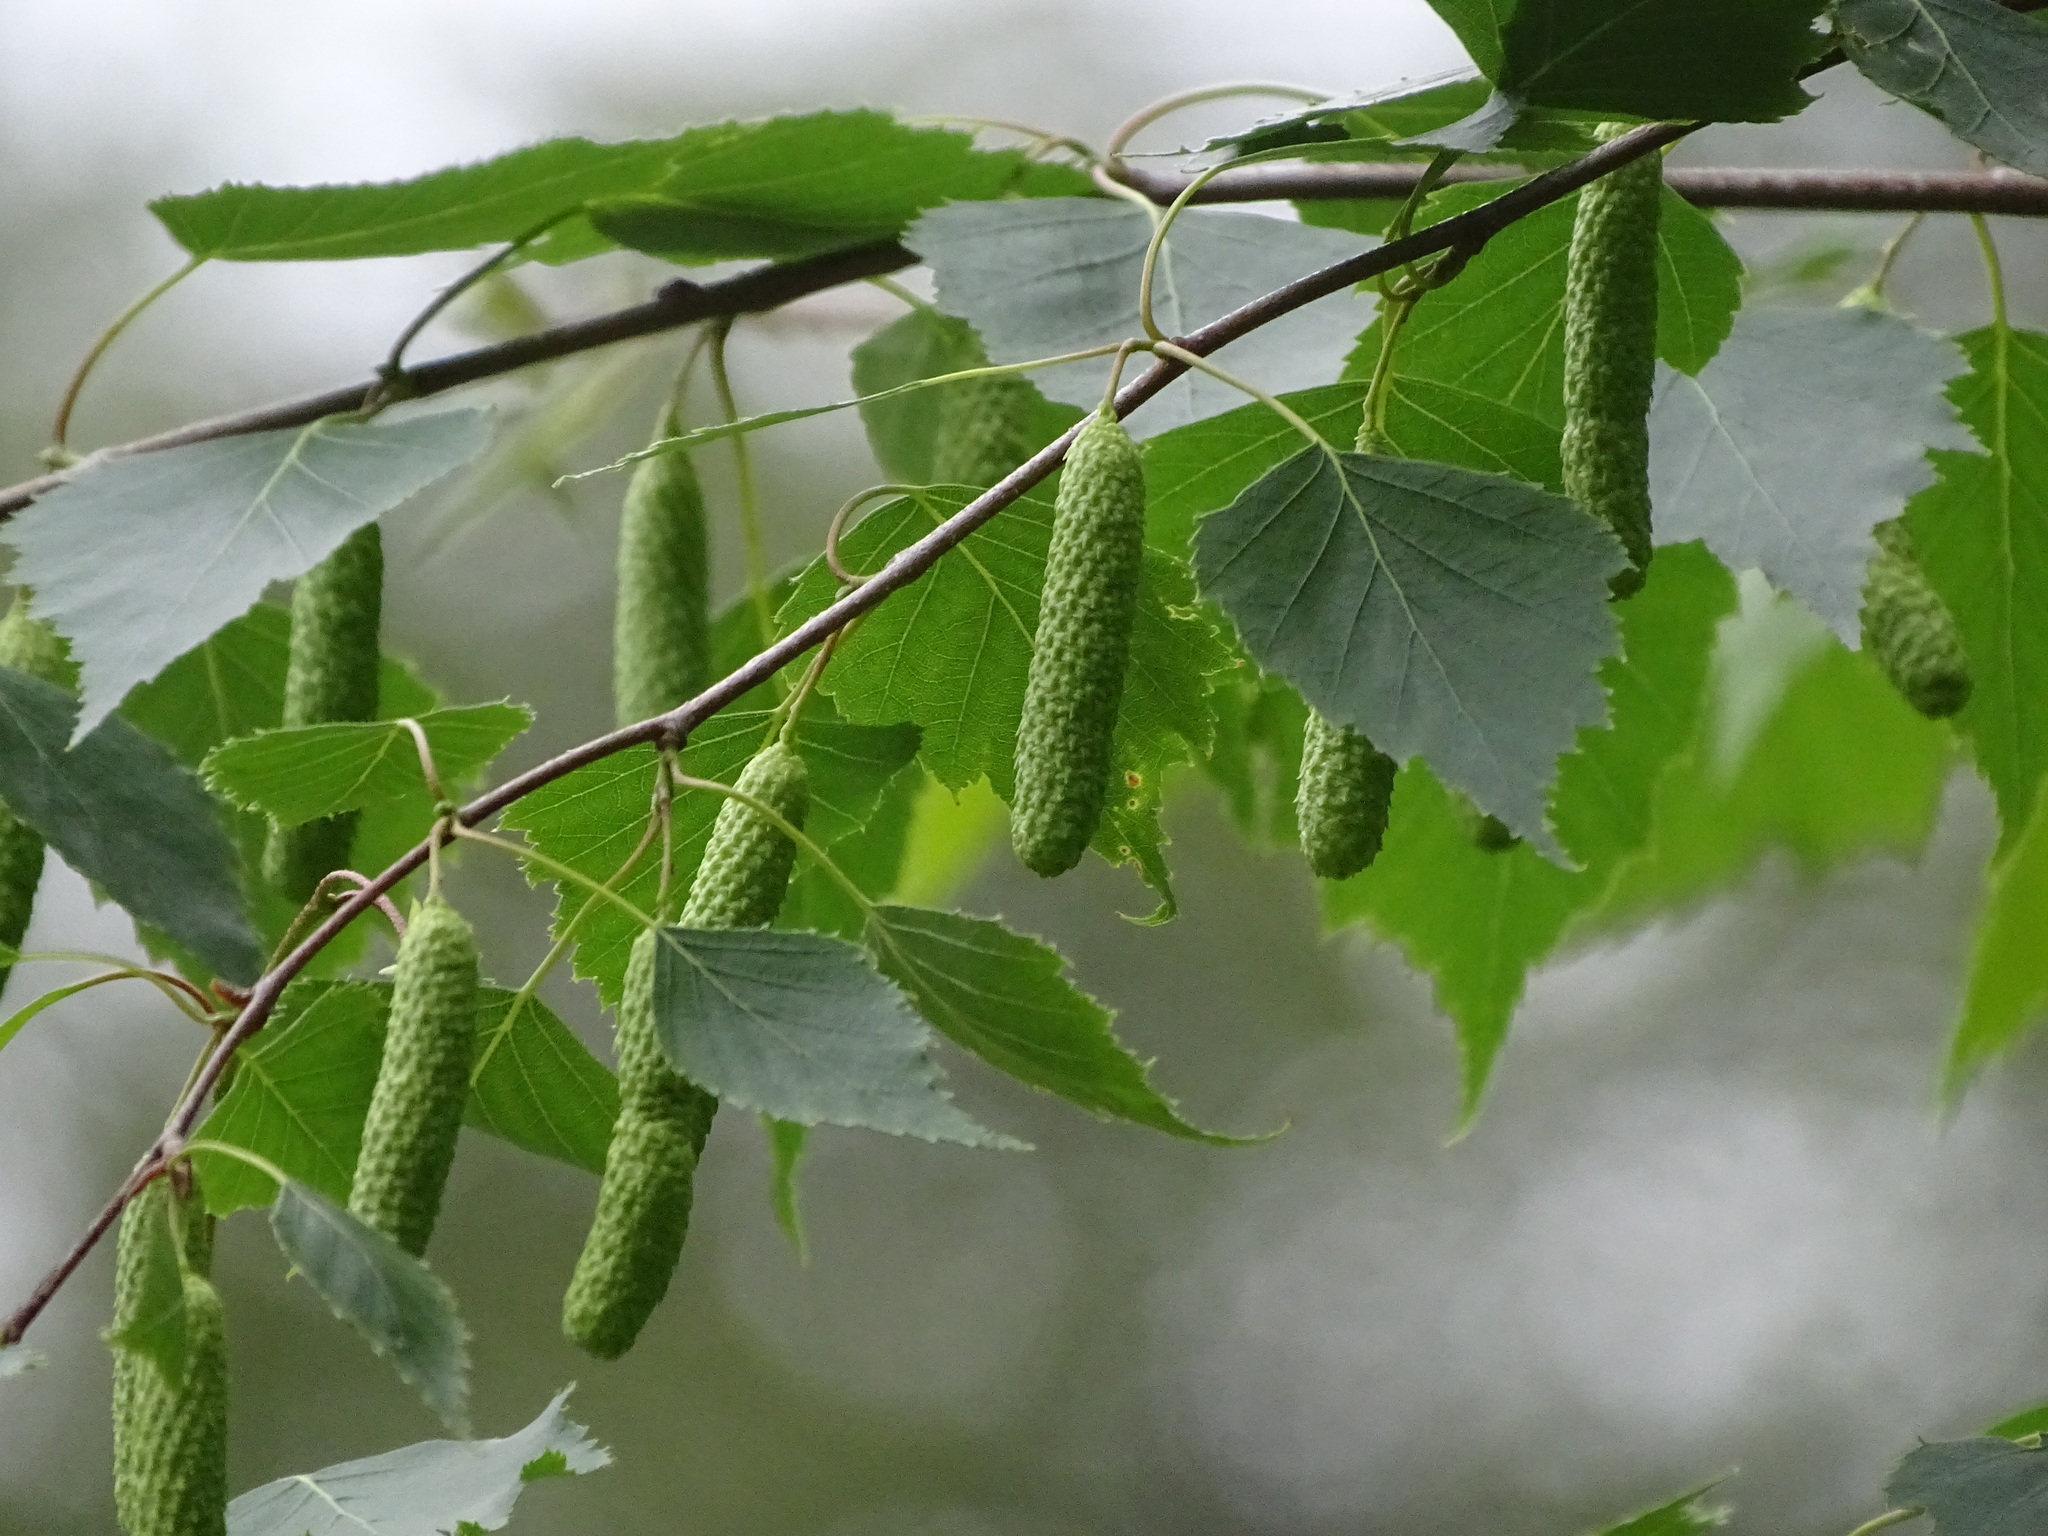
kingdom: Plantae
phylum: Tracheophyta
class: Magnoliopsida
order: Fagales
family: Betulaceae
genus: Betula
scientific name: Betula pendula
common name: Silver birch
